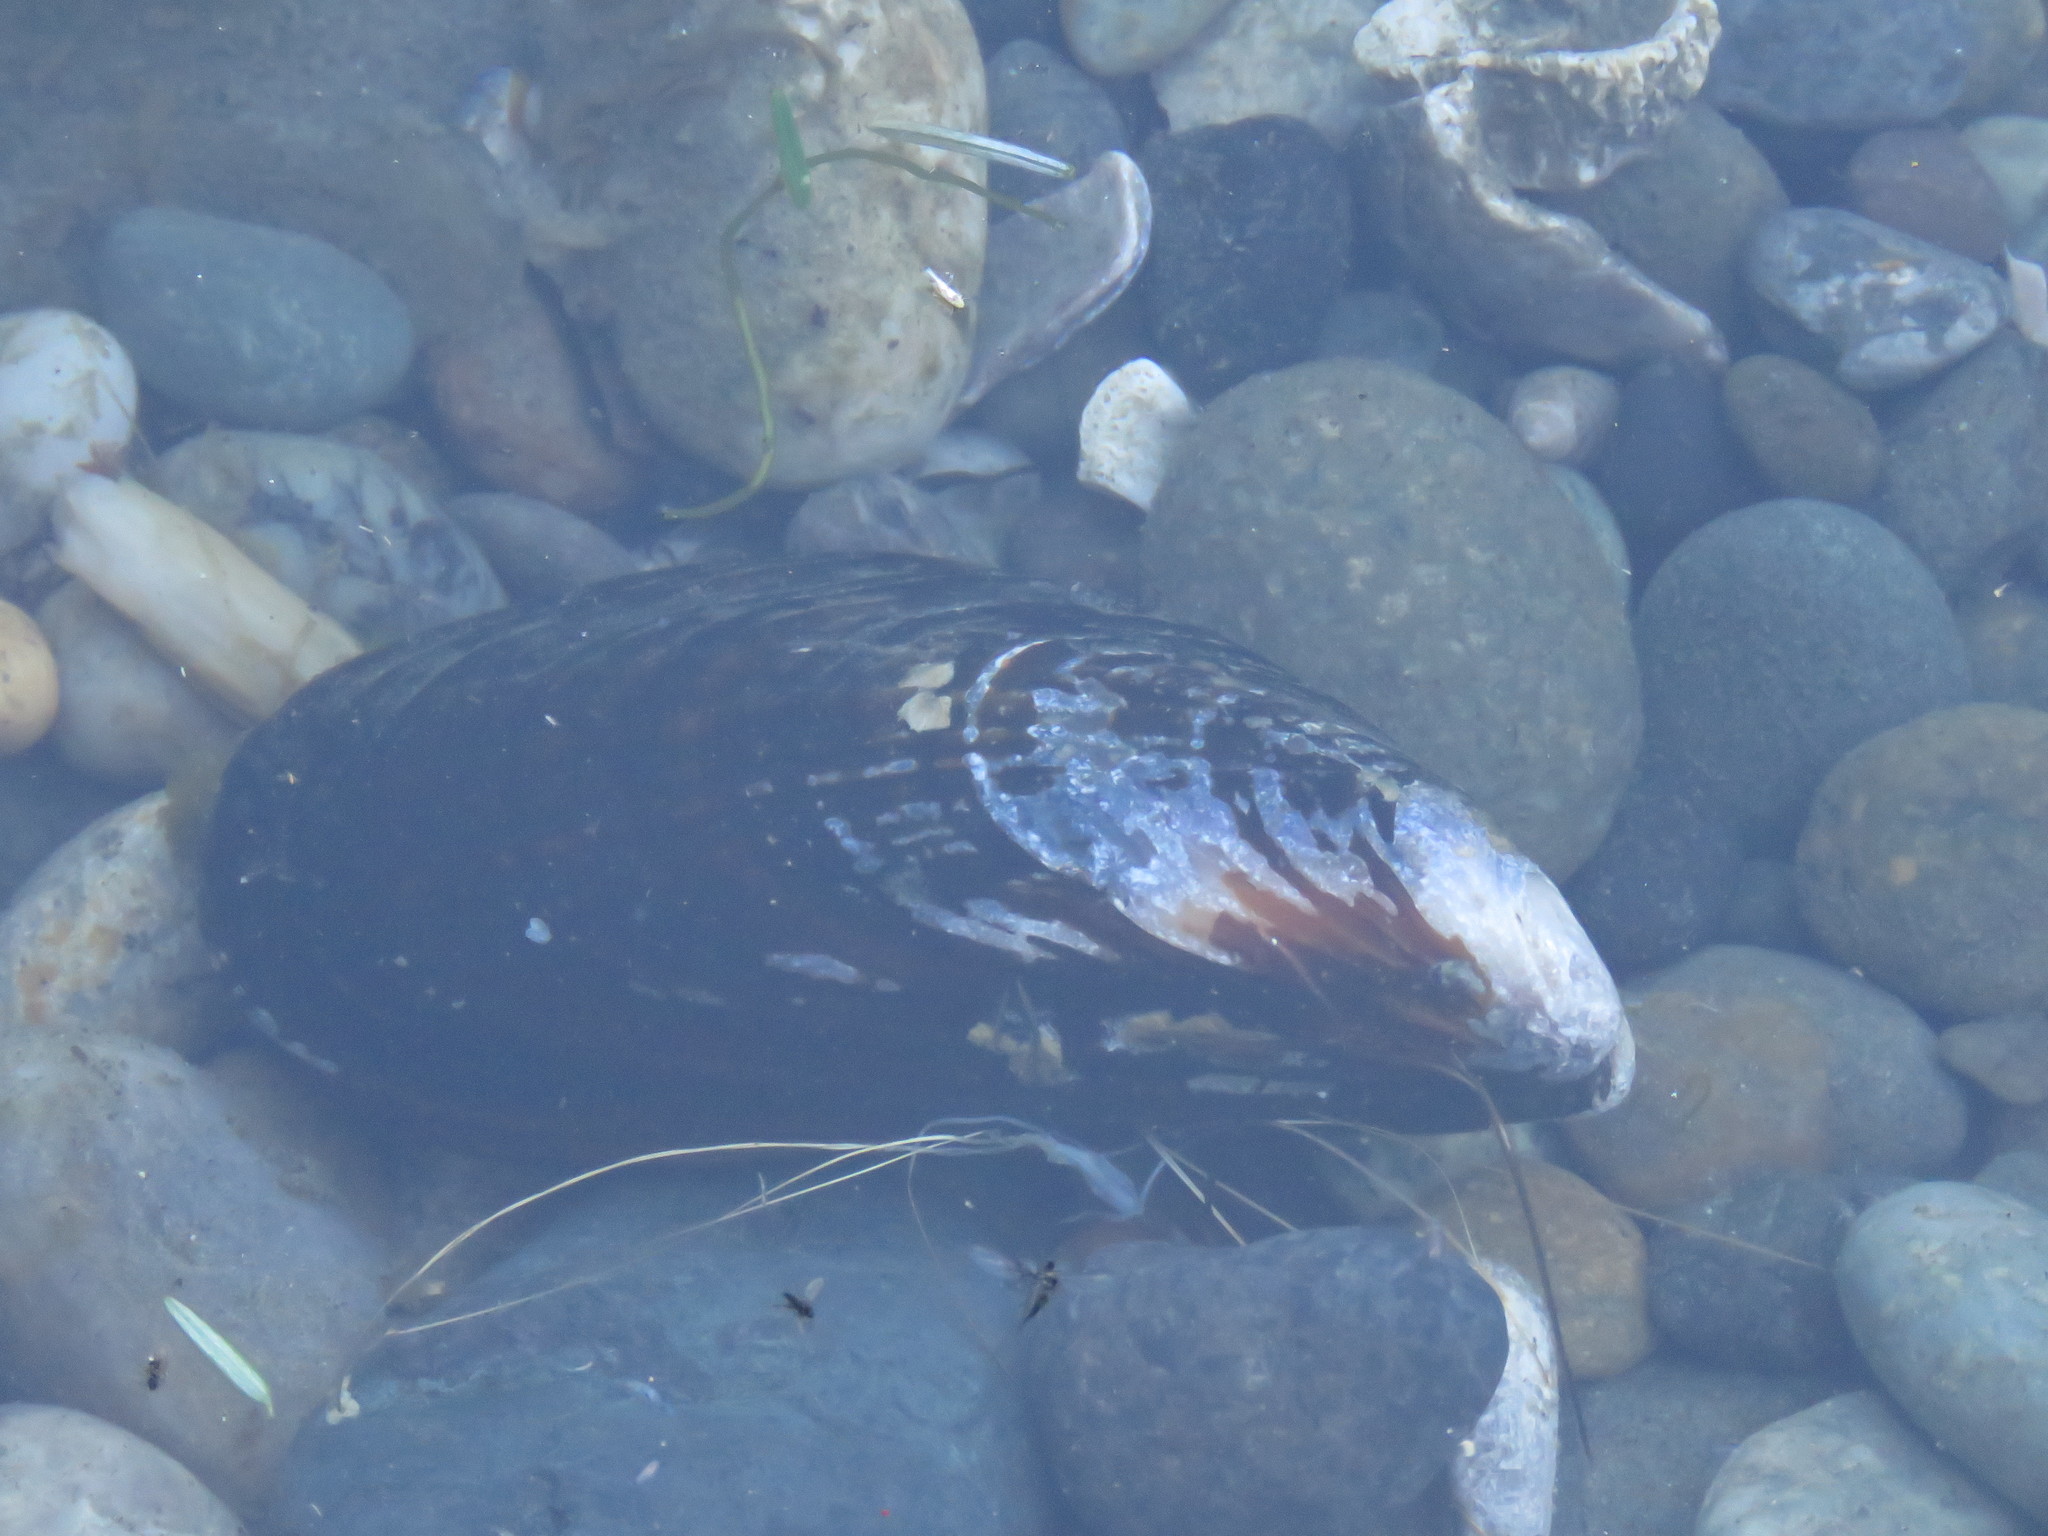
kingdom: Animalia
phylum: Mollusca
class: Bivalvia
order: Mytilida
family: Mytilidae
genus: Mytilus
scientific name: Mytilus californianus
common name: California mussel
